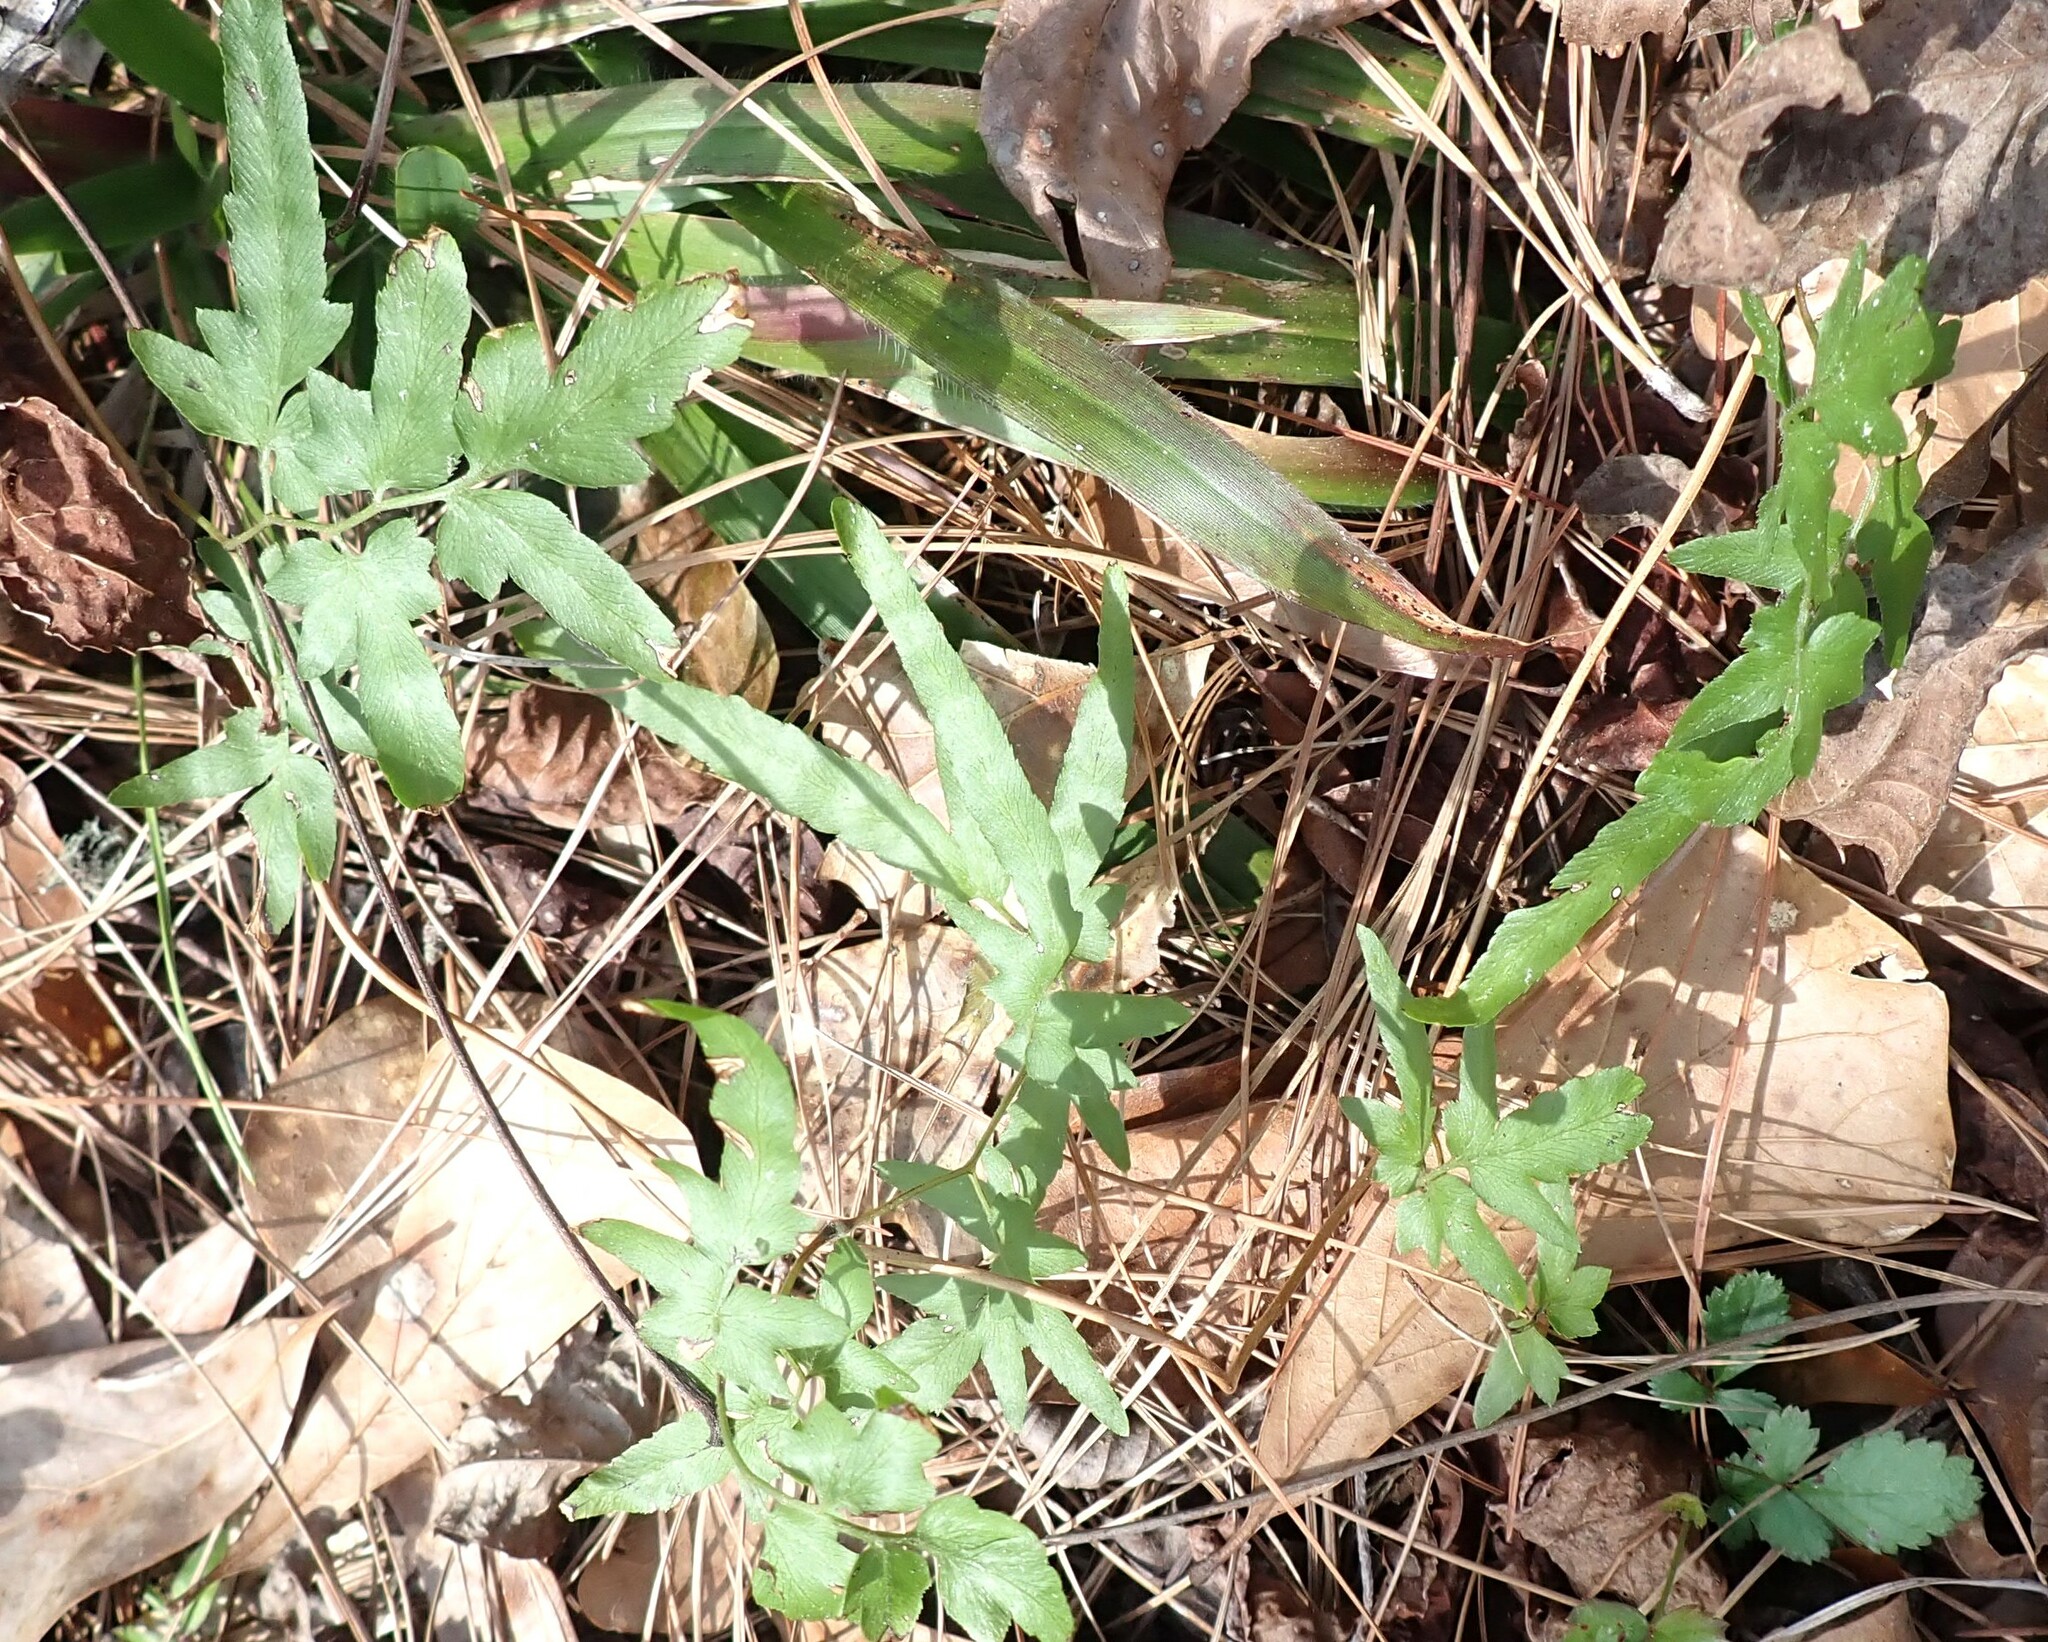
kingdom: Plantae
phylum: Tracheophyta
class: Polypodiopsida
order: Schizaeales
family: Lygodiaceae
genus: Lygodium
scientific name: Lygodium japonicum
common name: Japanese climbing fern
